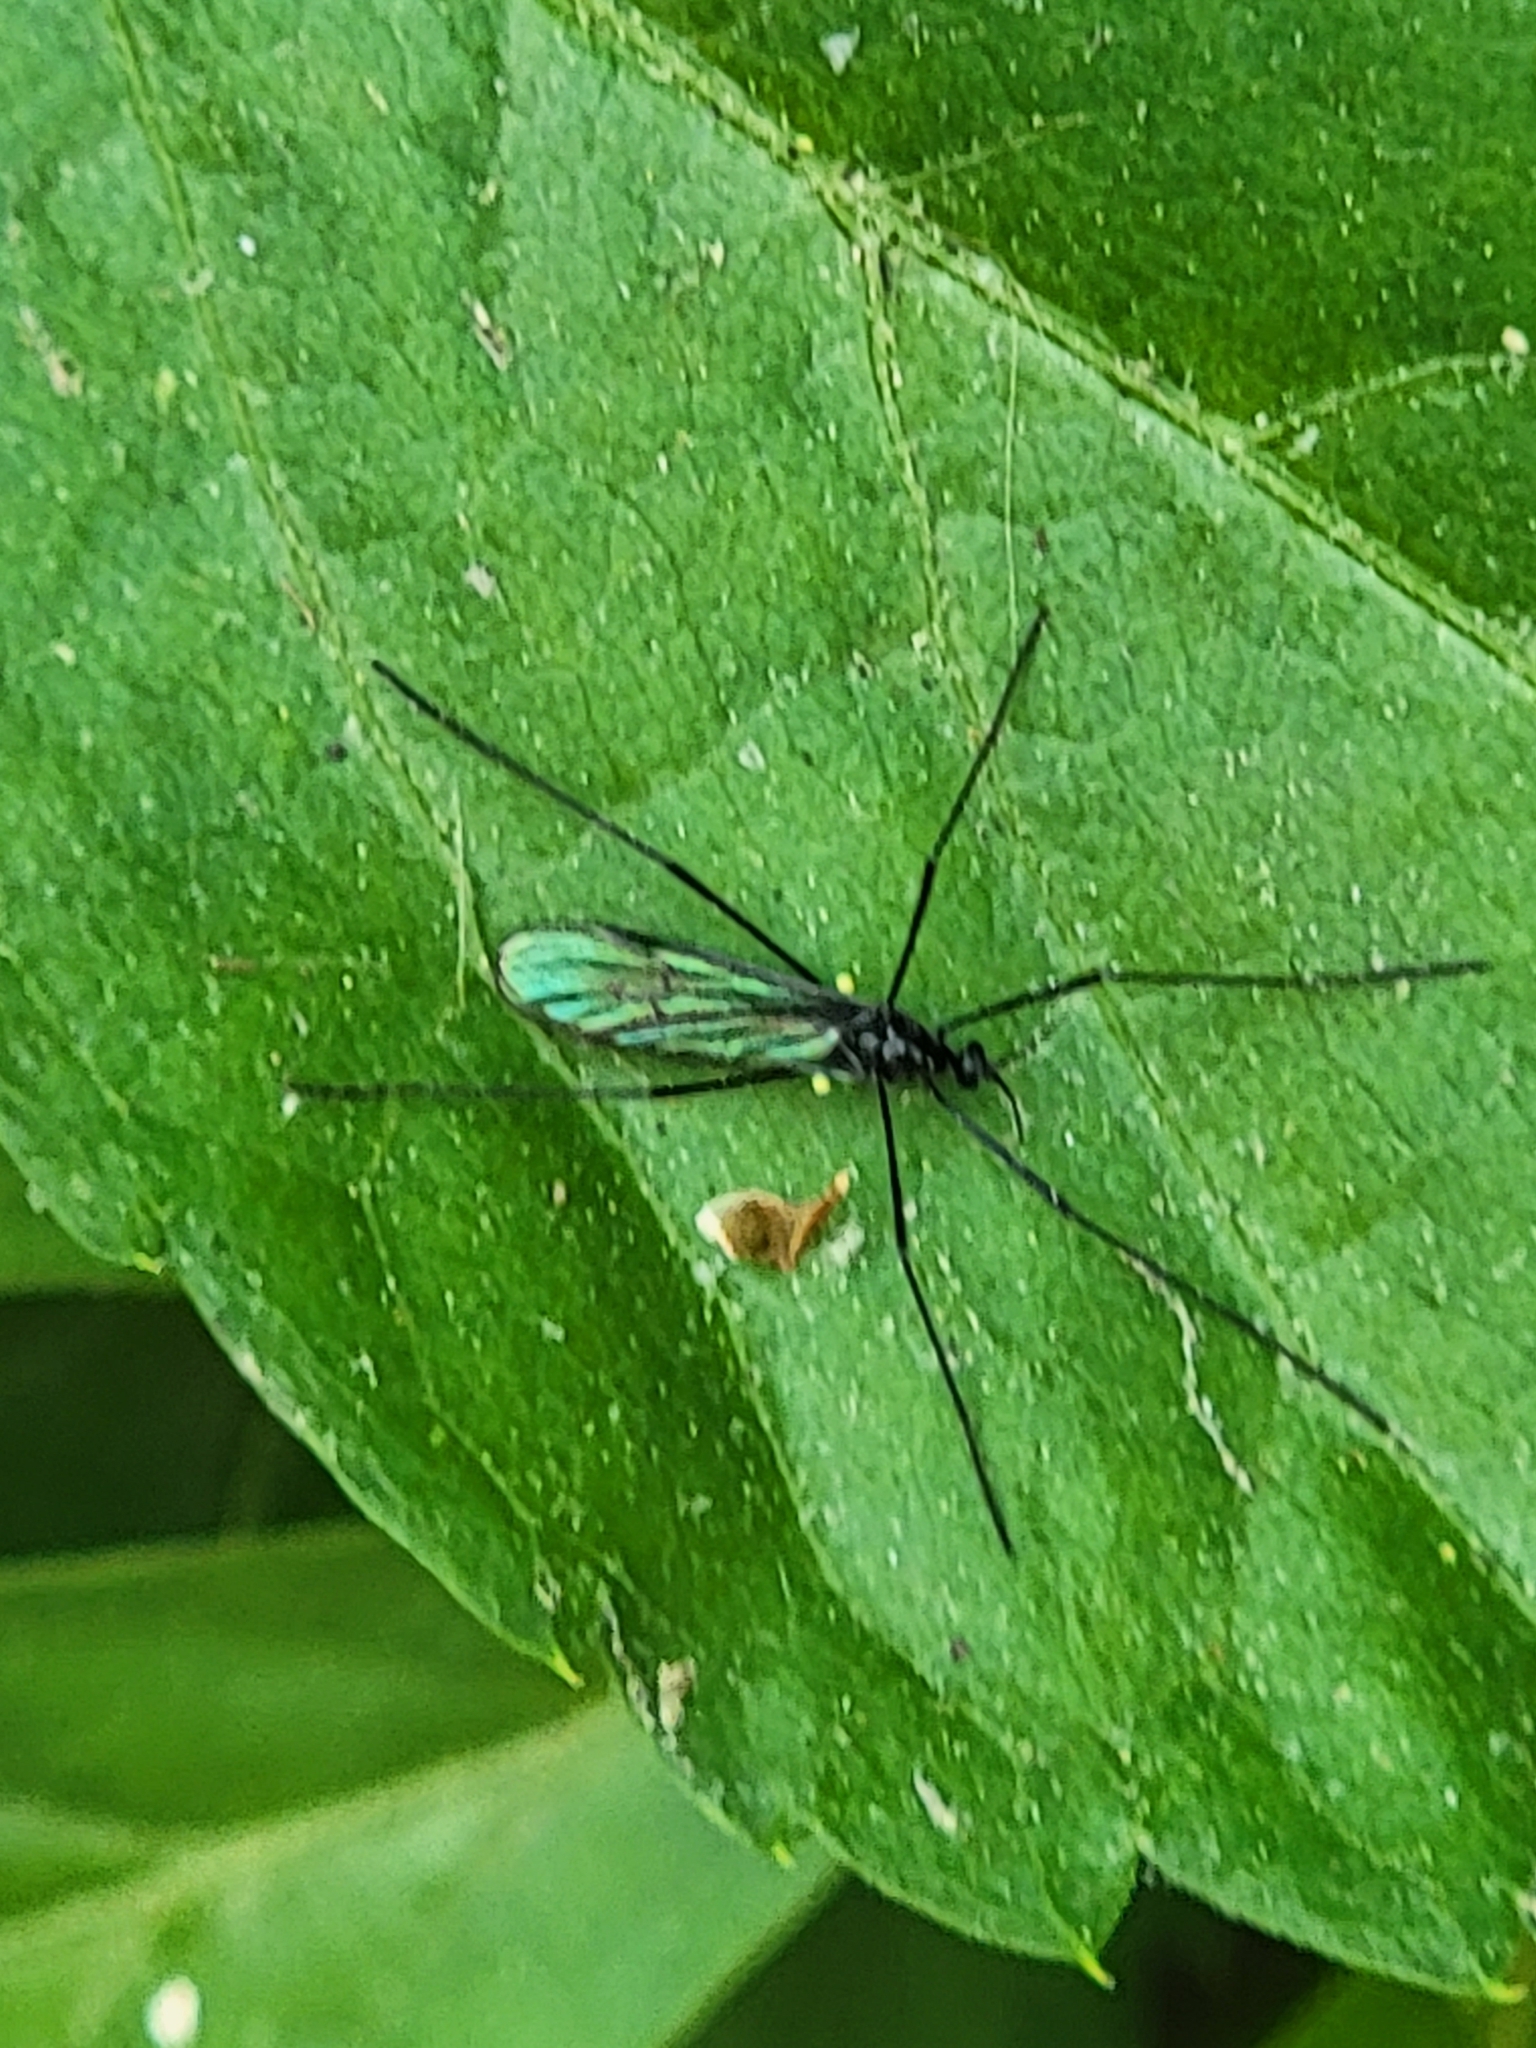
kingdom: Animalia
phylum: Arthropoda
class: Insecta
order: Diptera
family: Limoniidae
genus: Gnophomyia
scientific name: Gnophomyia tristissima
